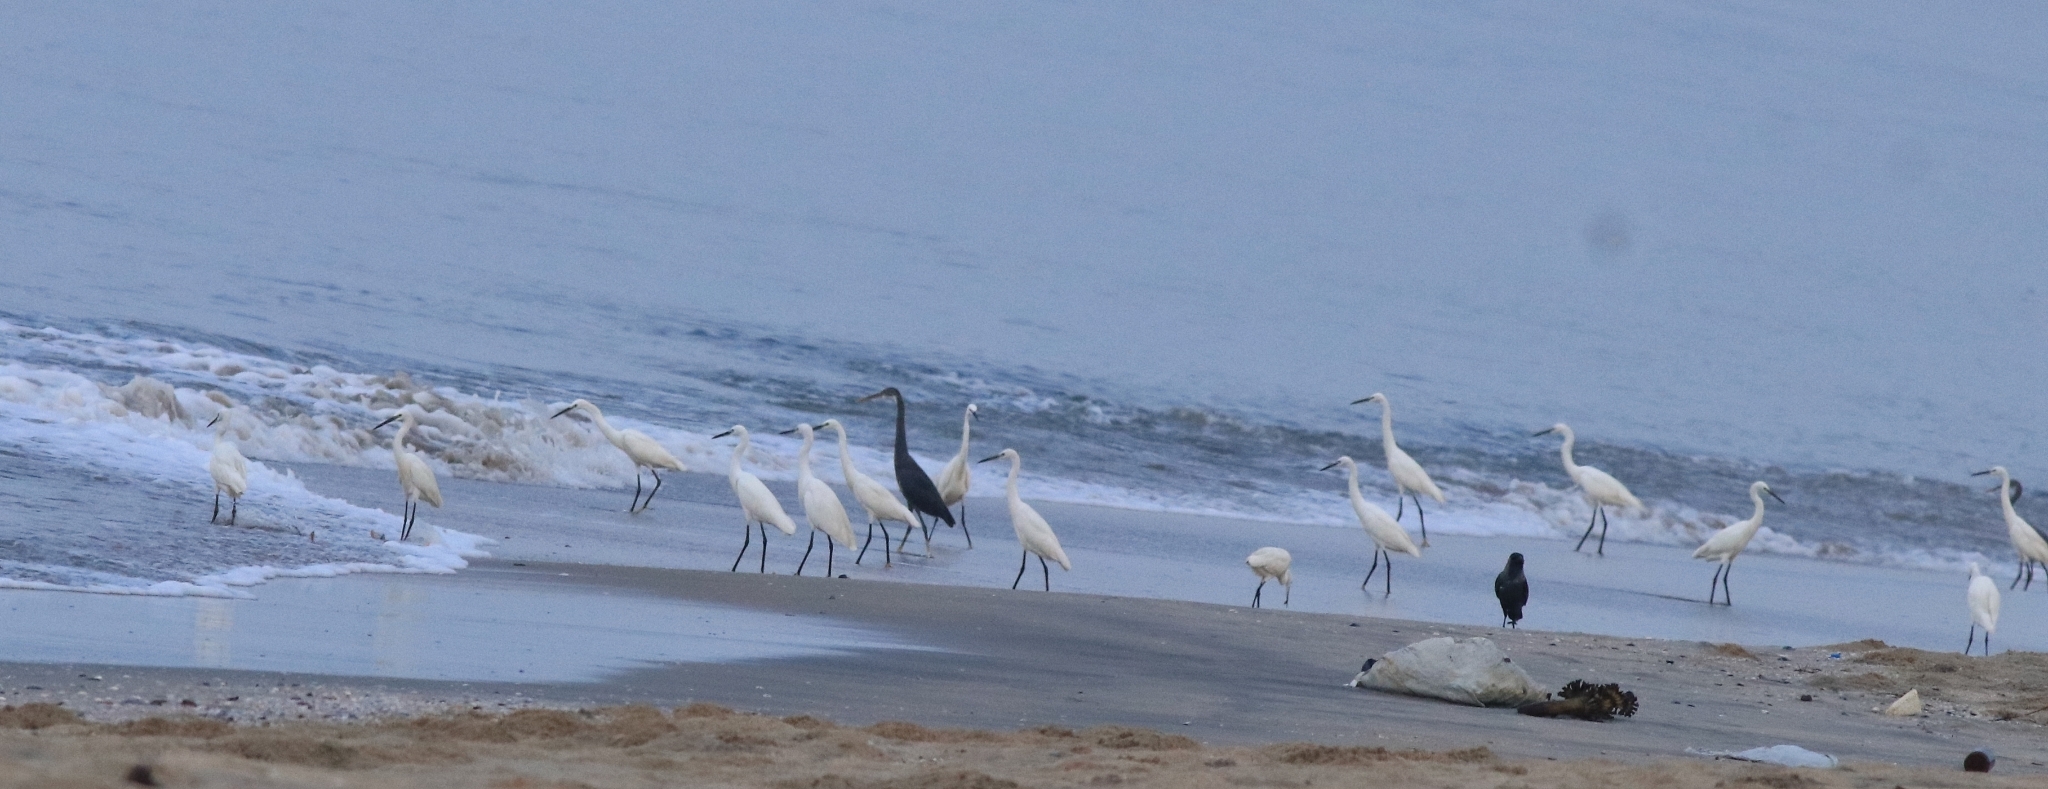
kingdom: Animalia
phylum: Chordata
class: Aves
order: Pelecaniformes
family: Ardeidae
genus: Egretta
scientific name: Egretta garzetta
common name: Little egret
